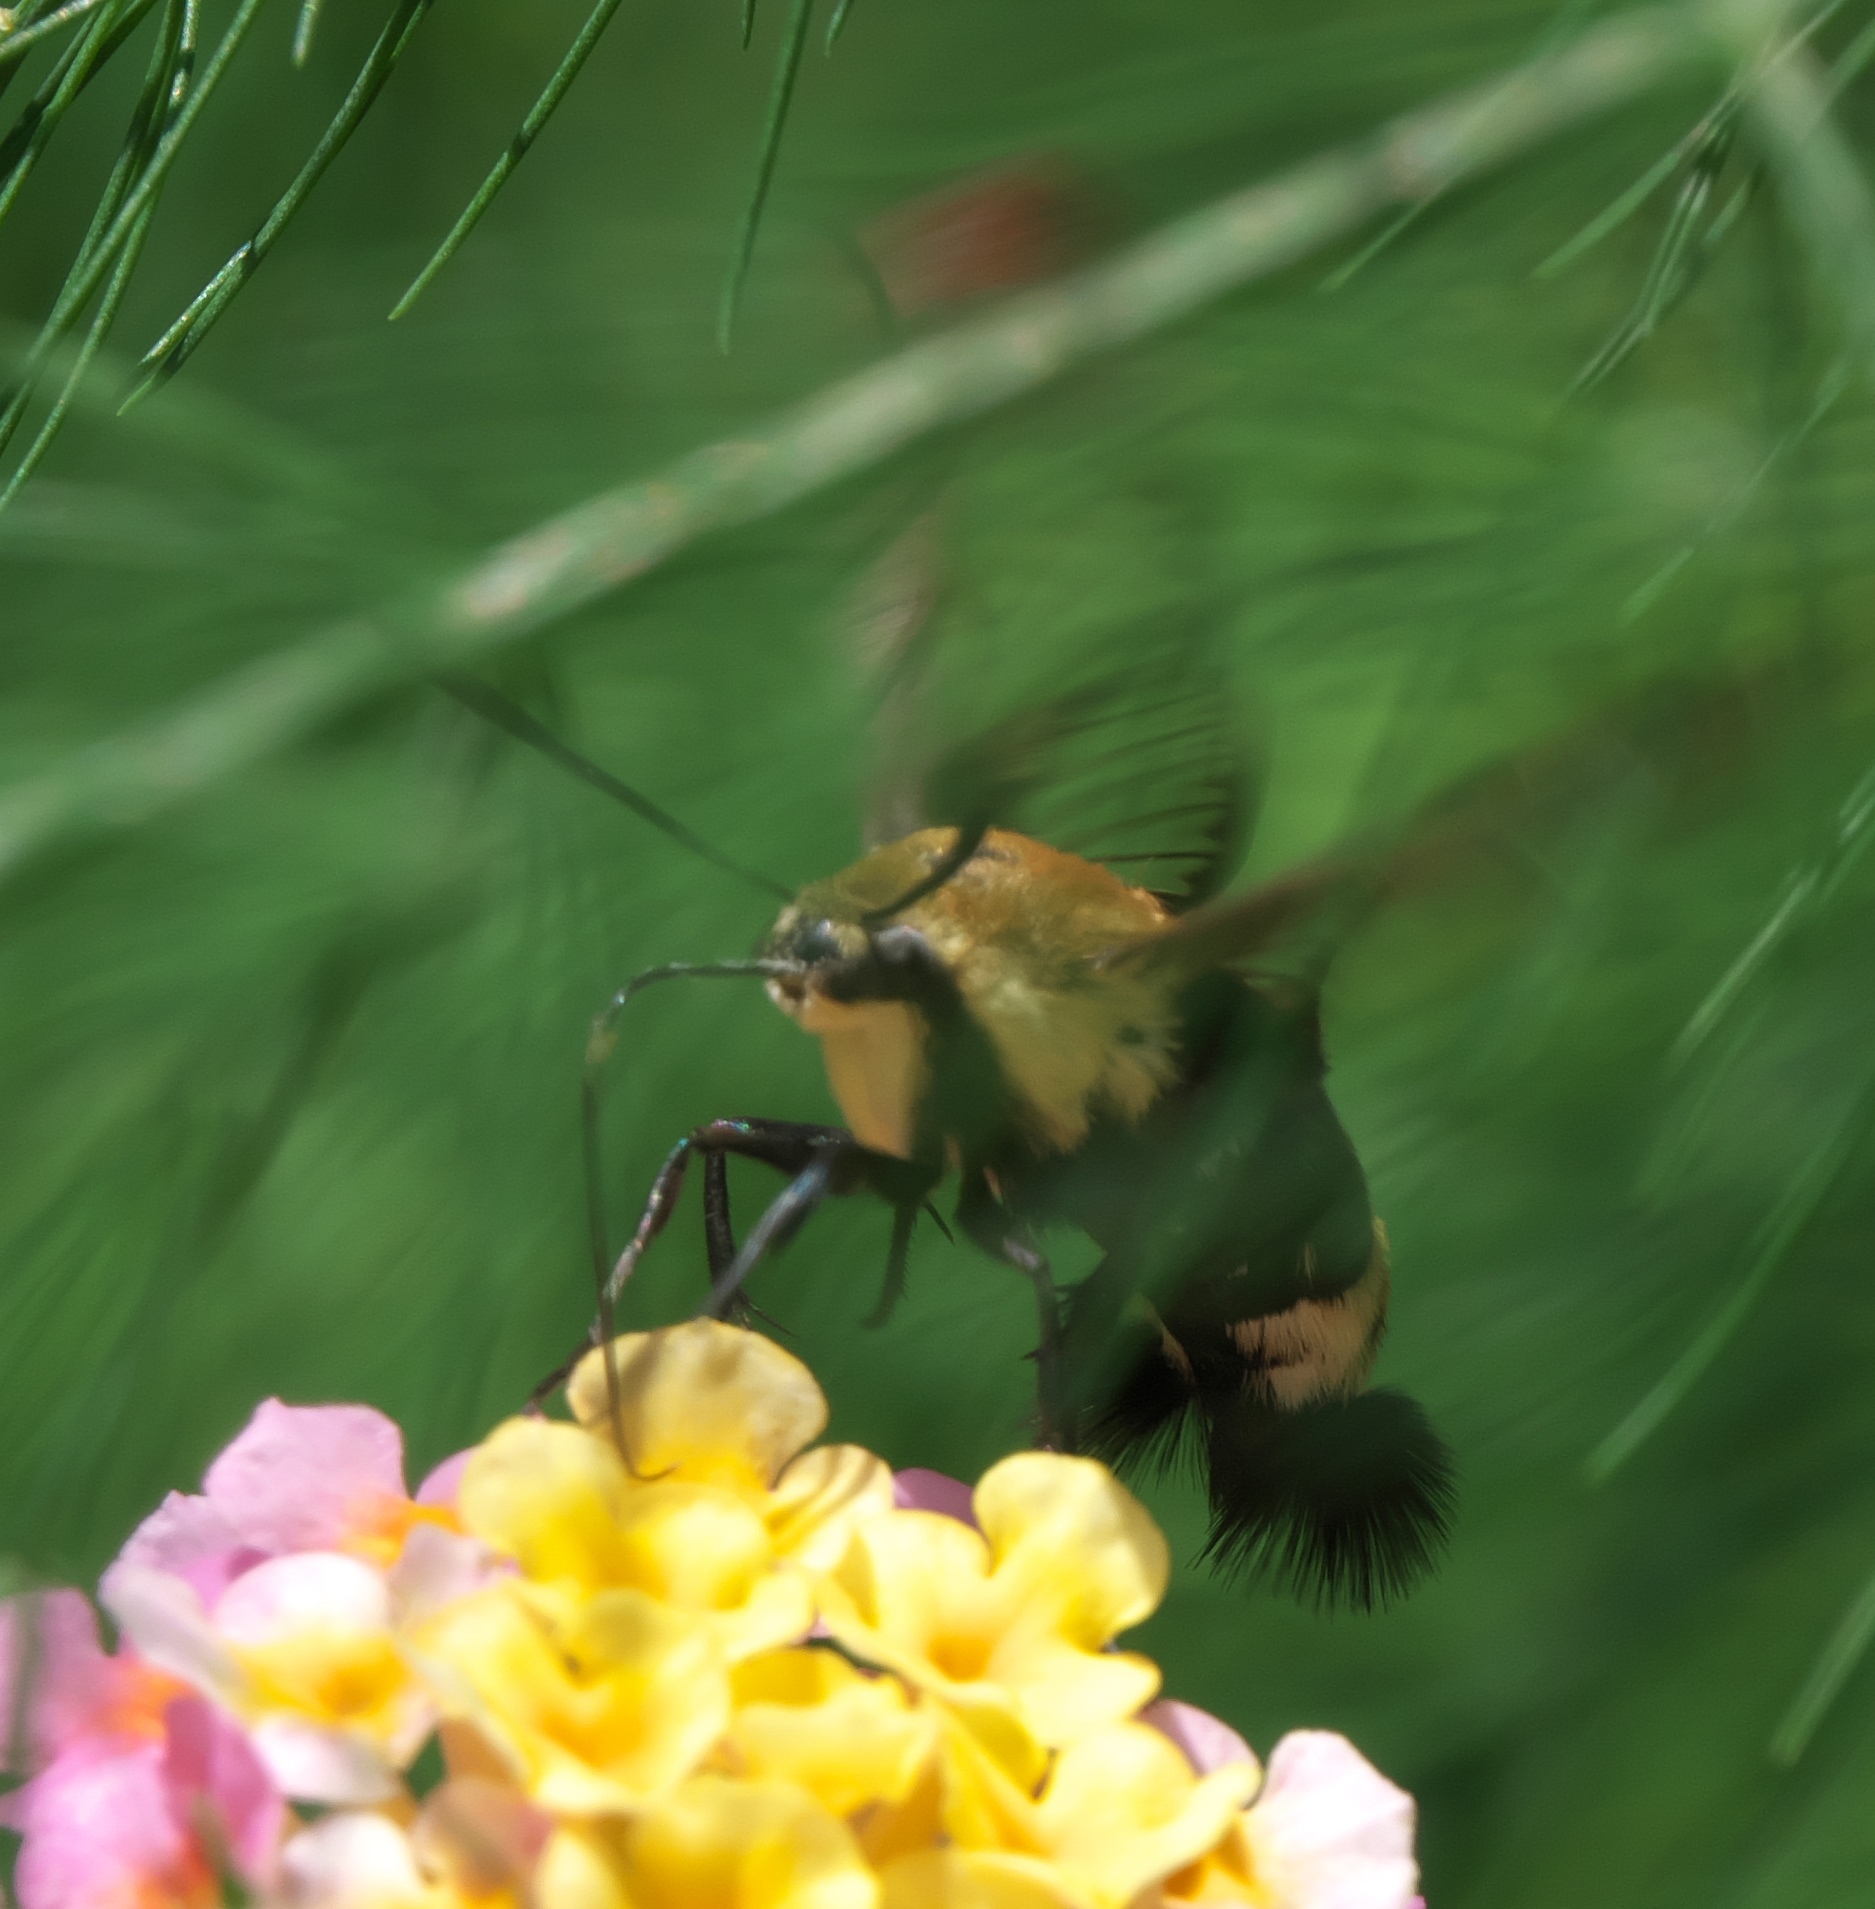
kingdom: Animalia
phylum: Arthropoda
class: Insecta
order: Lepidoptera
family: Sphingidae
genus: Hemaris
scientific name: Hemaris diffinis
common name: Bumblebee moth
